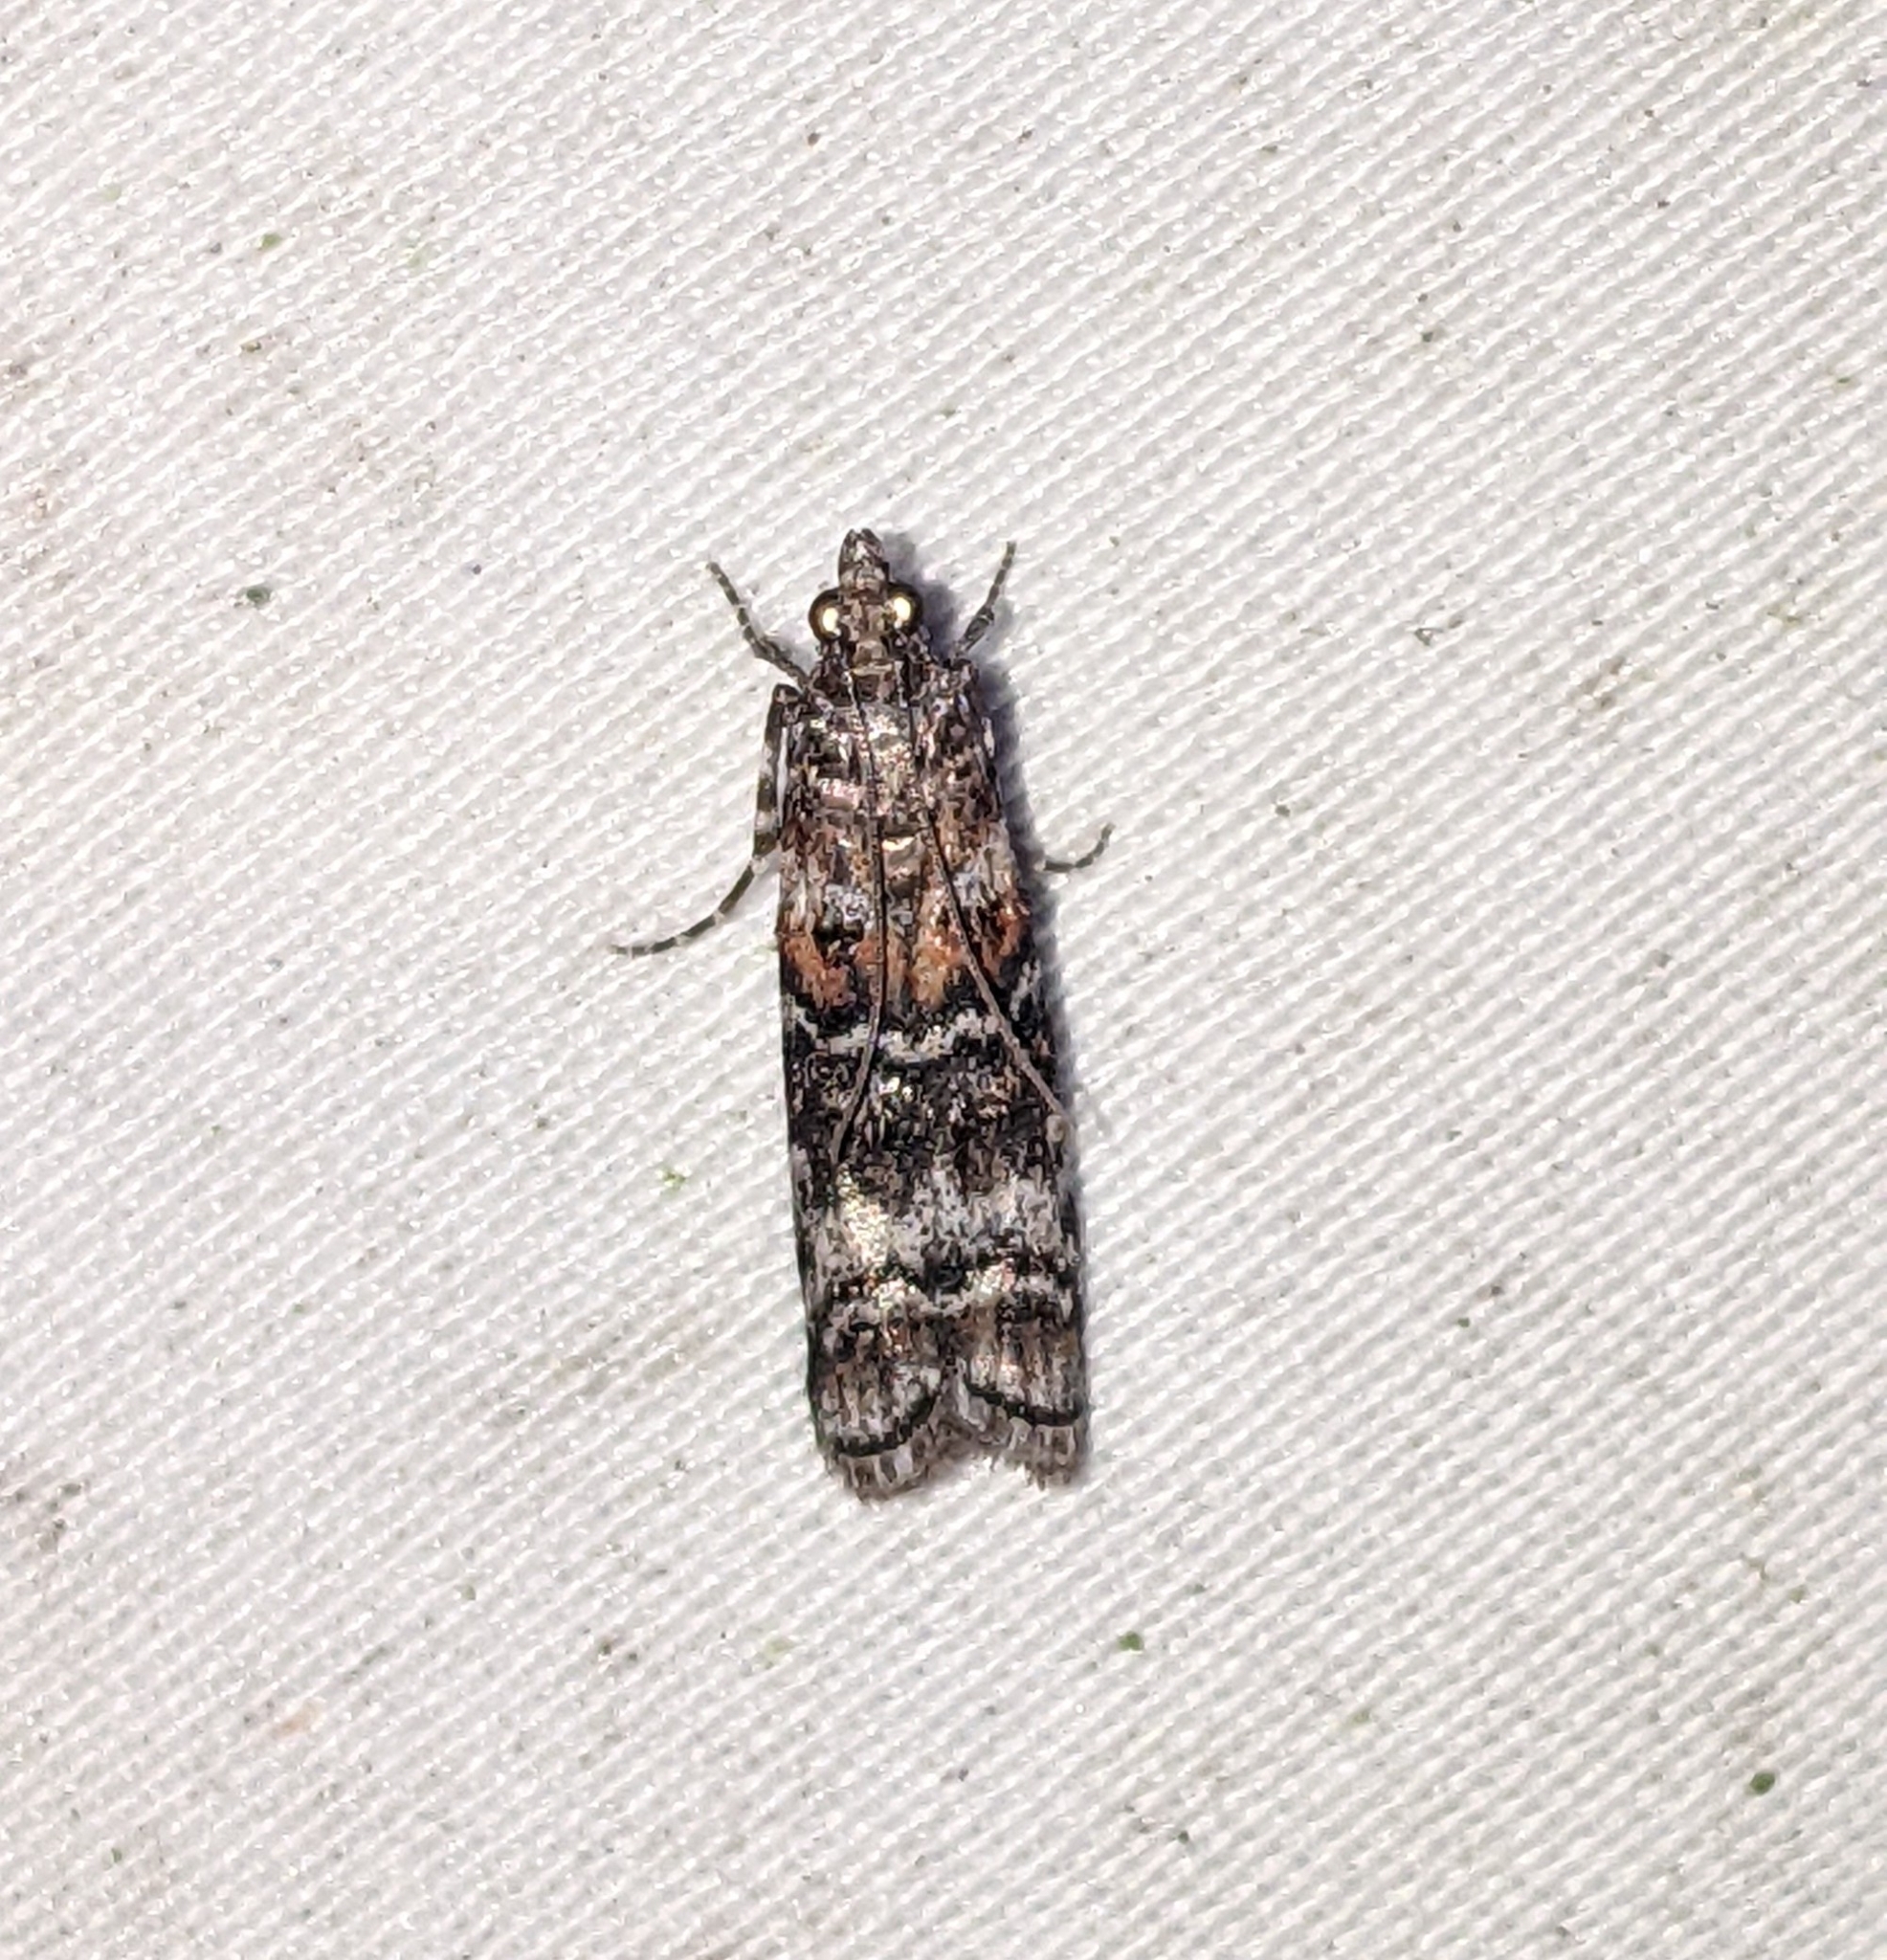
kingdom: Animalia
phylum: Arthropoda
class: Insecta
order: Lepidoptera
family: Pyralidae
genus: Dioryctria
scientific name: Dioryctria banksiella
